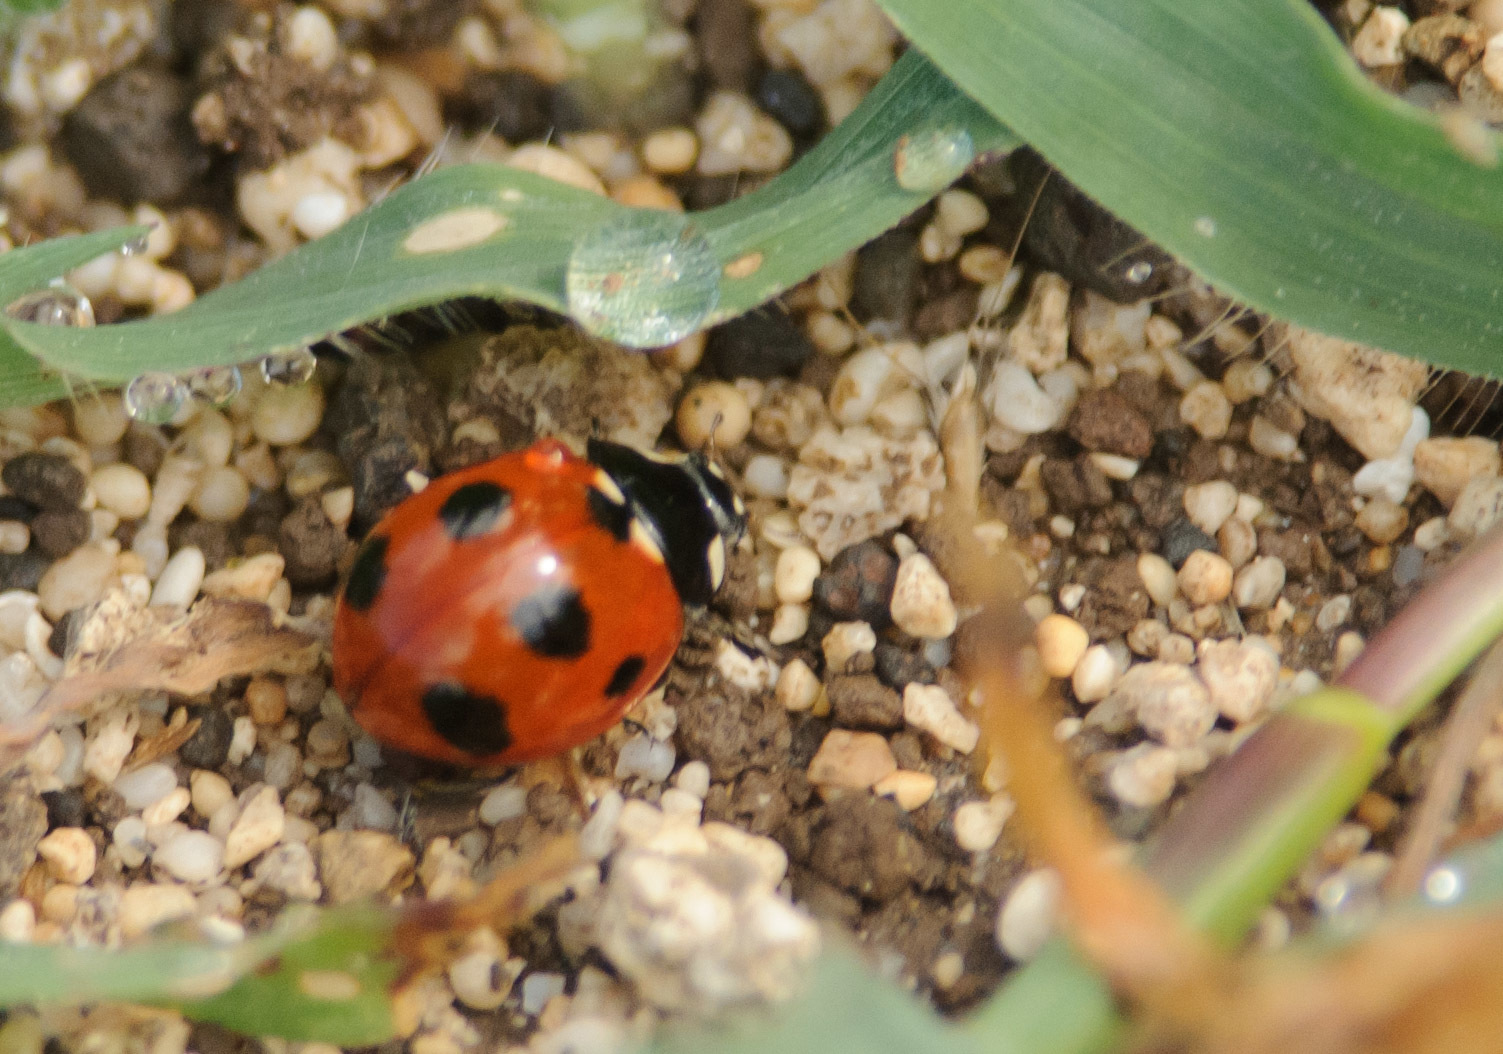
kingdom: Animalia
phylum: Arthropoda
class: Insecta
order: Coleoptera
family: Coccinellidae
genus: Coccinella
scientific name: Coccinella septempunctata
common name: Sevenspotted lady beetle
